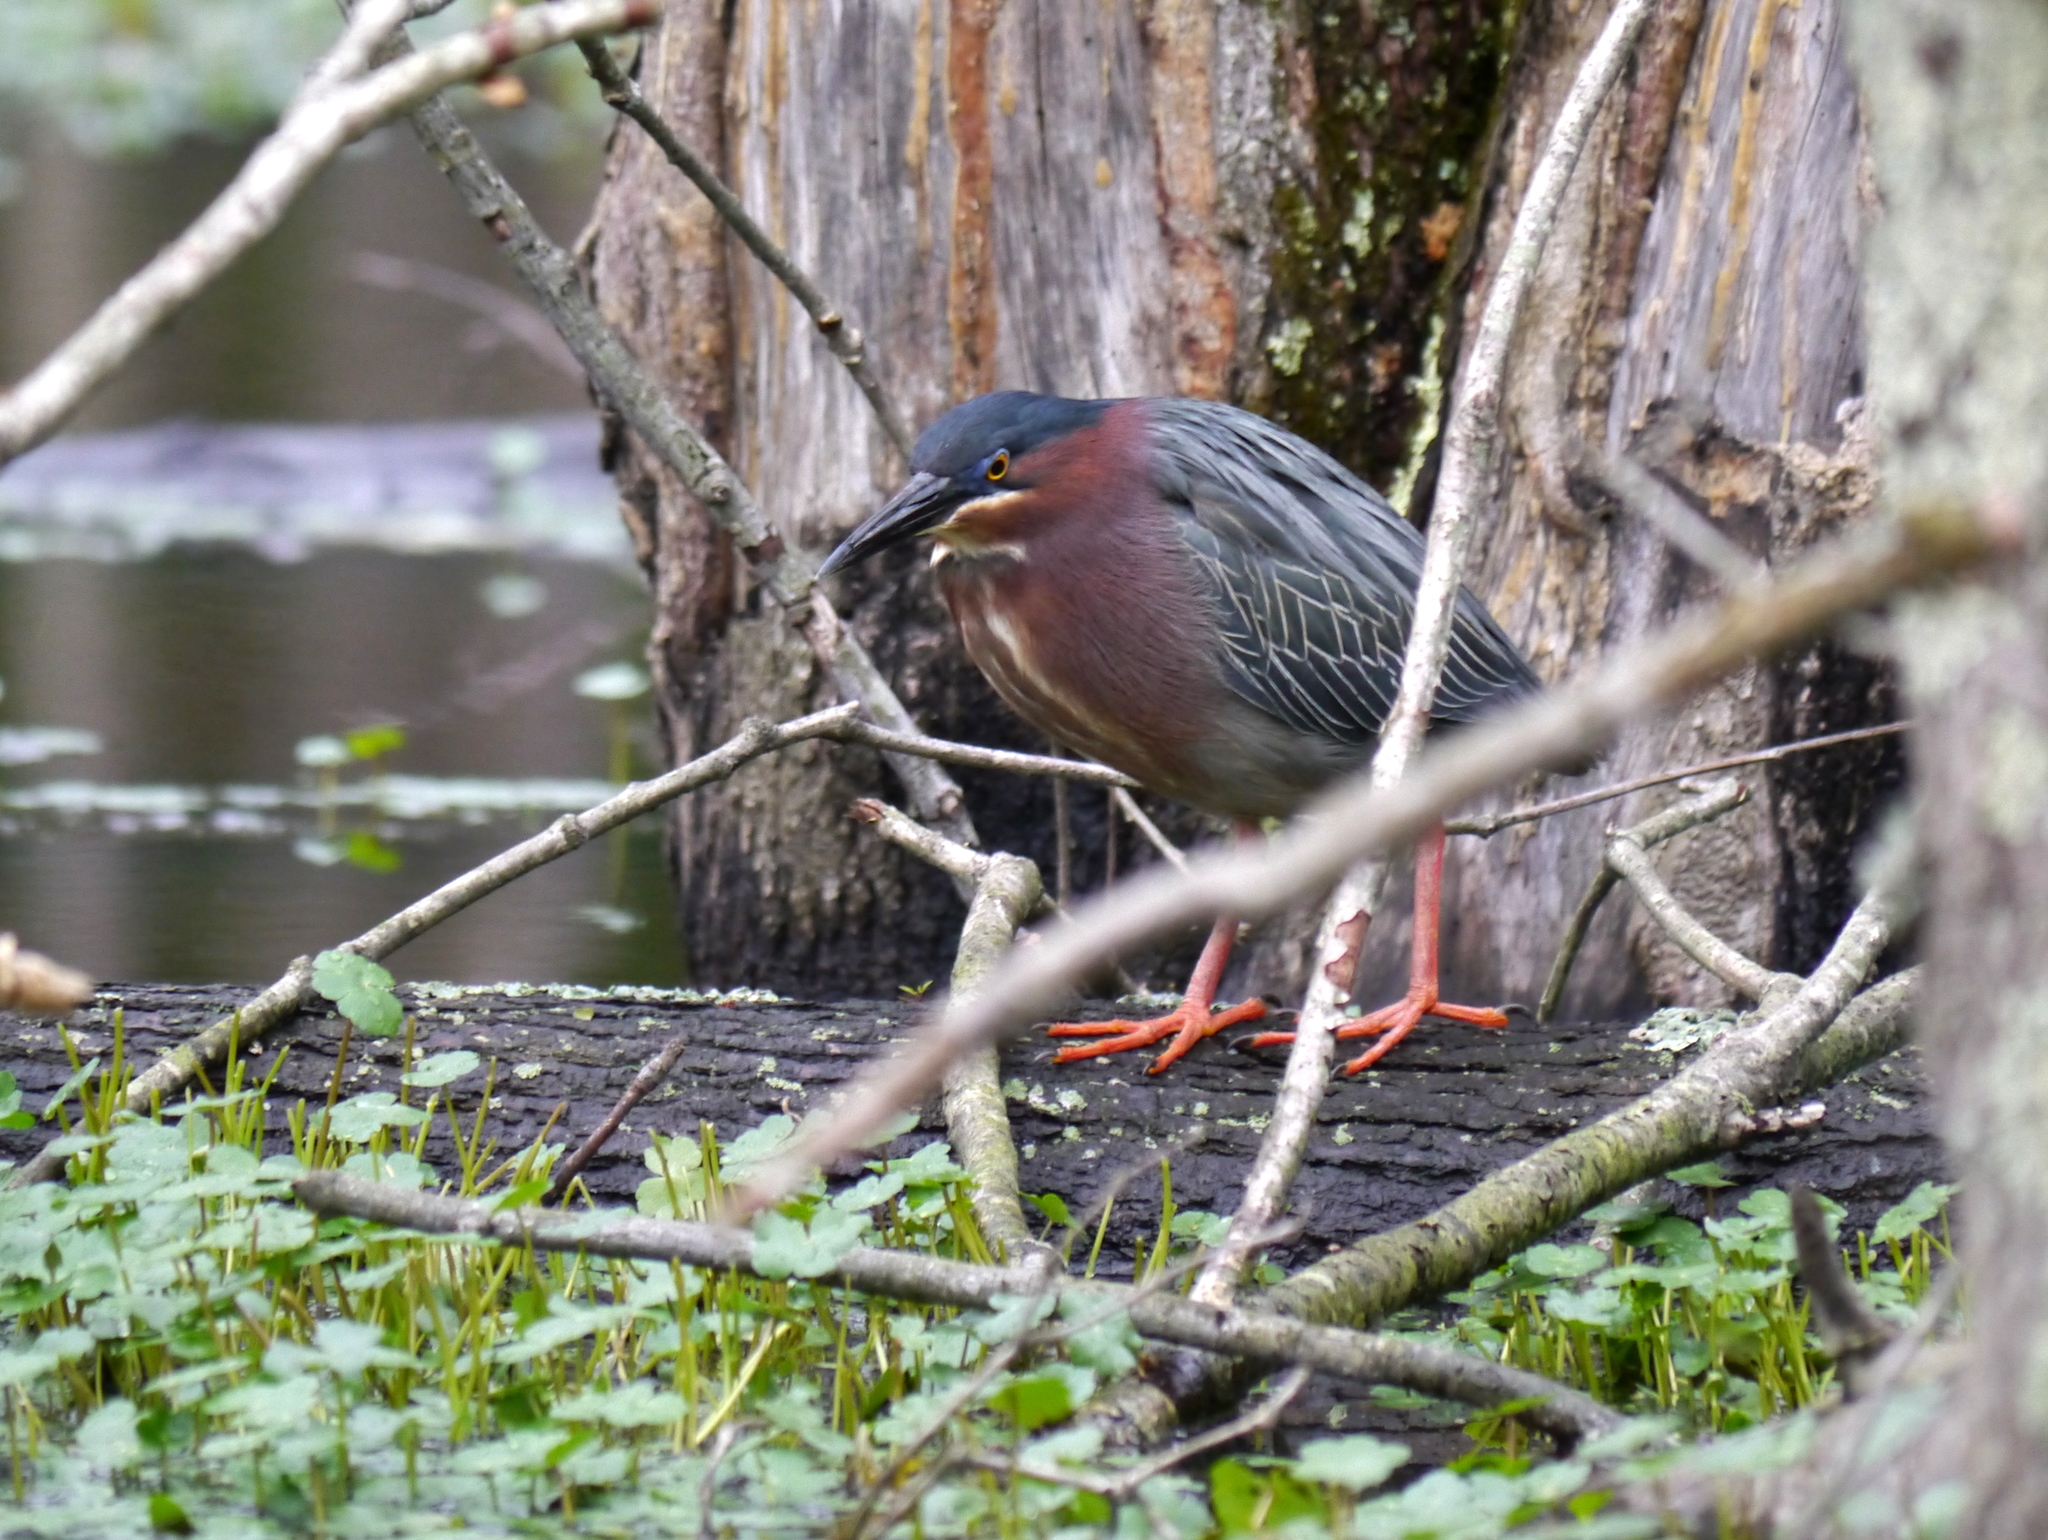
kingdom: Animalia
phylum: Chordata
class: Aves
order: Pelecaniformes
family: Ardeidae
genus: Butorides
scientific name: Butorides virescens
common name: Green heron
